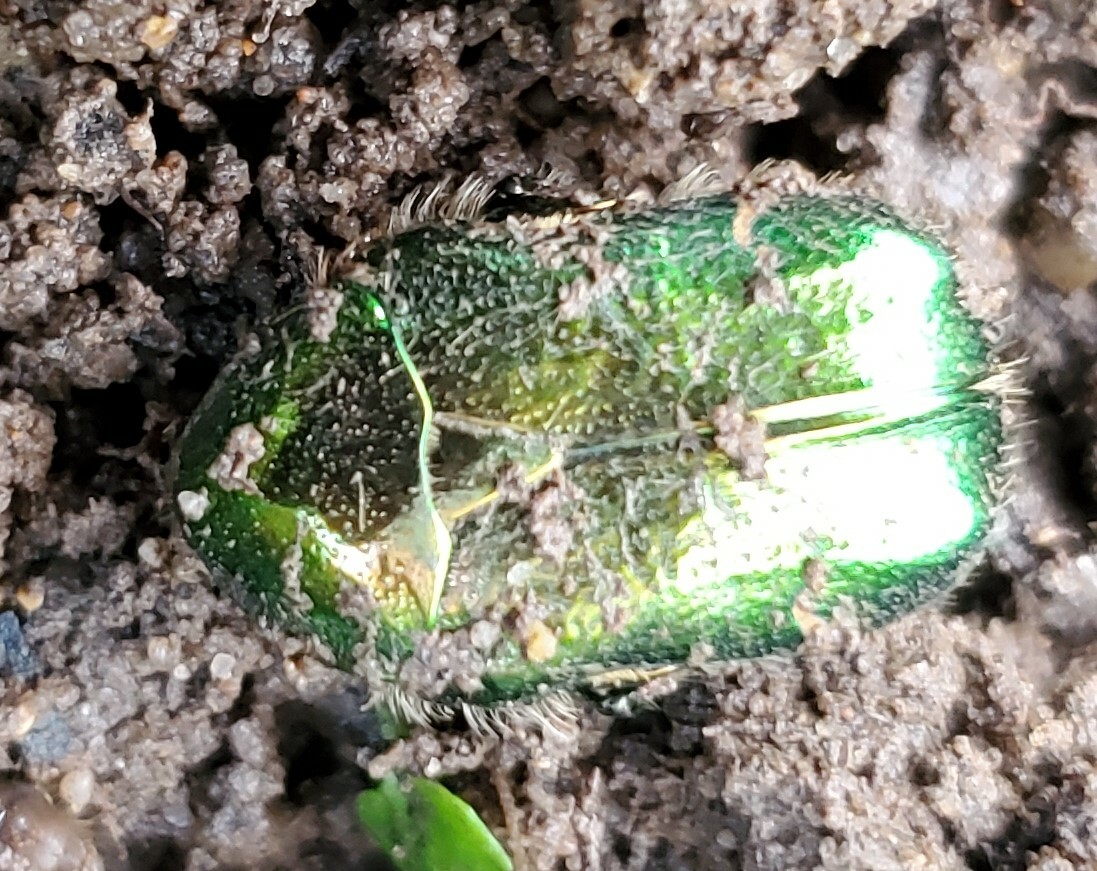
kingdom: Animalia
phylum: Arthropoda
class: Insecta
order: Coleoptera
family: Scarabaeidae
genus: Cetonia
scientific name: Cetonia aurata
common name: Rose chafer
